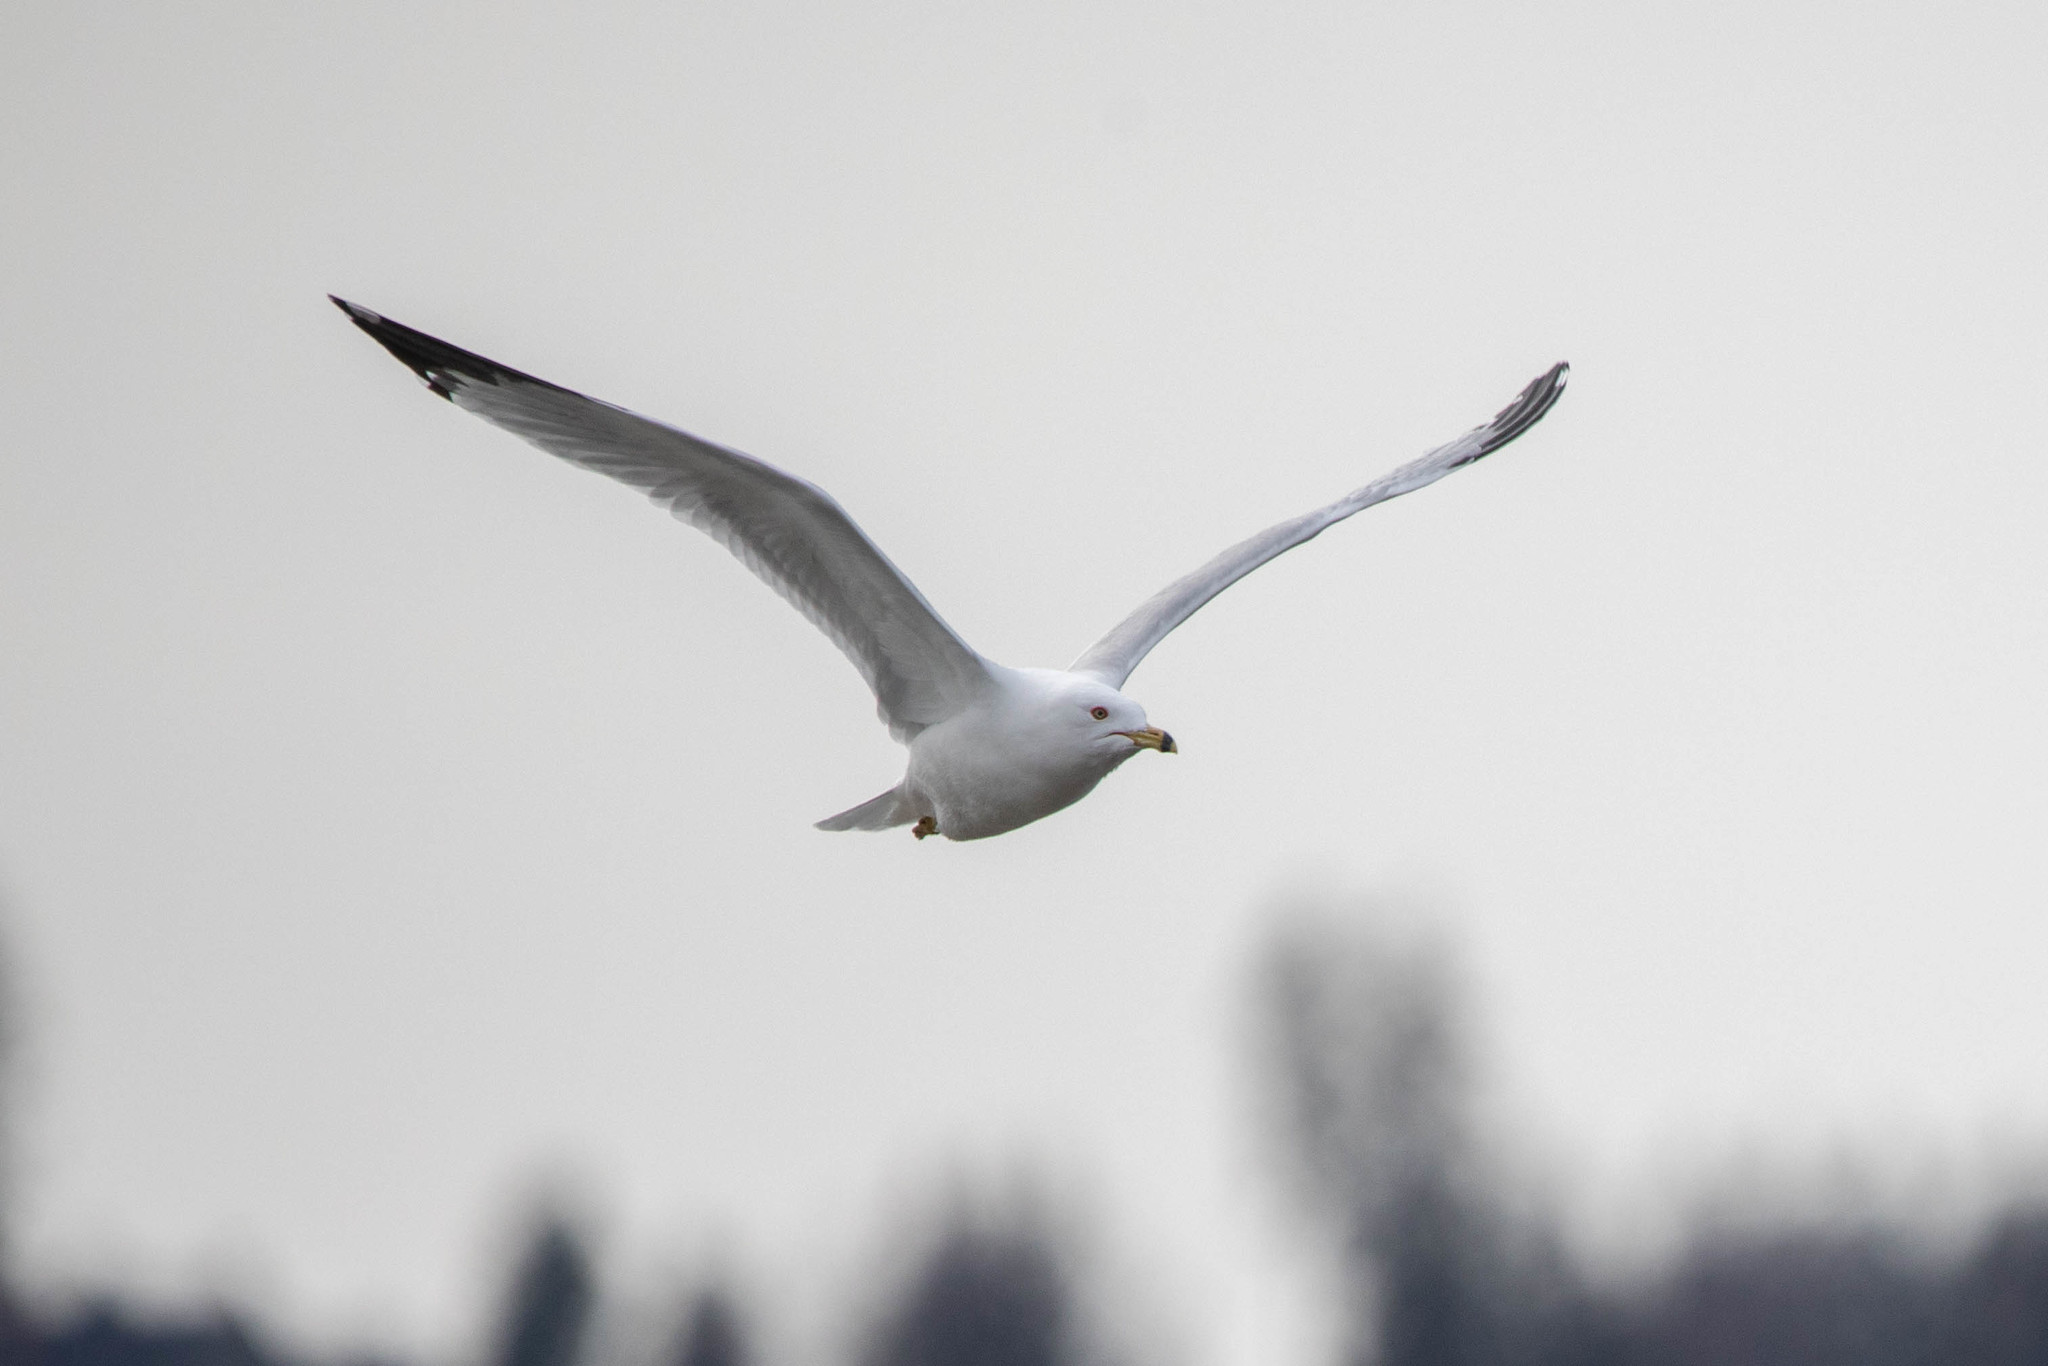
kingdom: Animalia
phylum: Chordata
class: Aves
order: Charadriiformes
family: Laridae
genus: Larus
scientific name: Larus delawarensis
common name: Ring-billed gull
